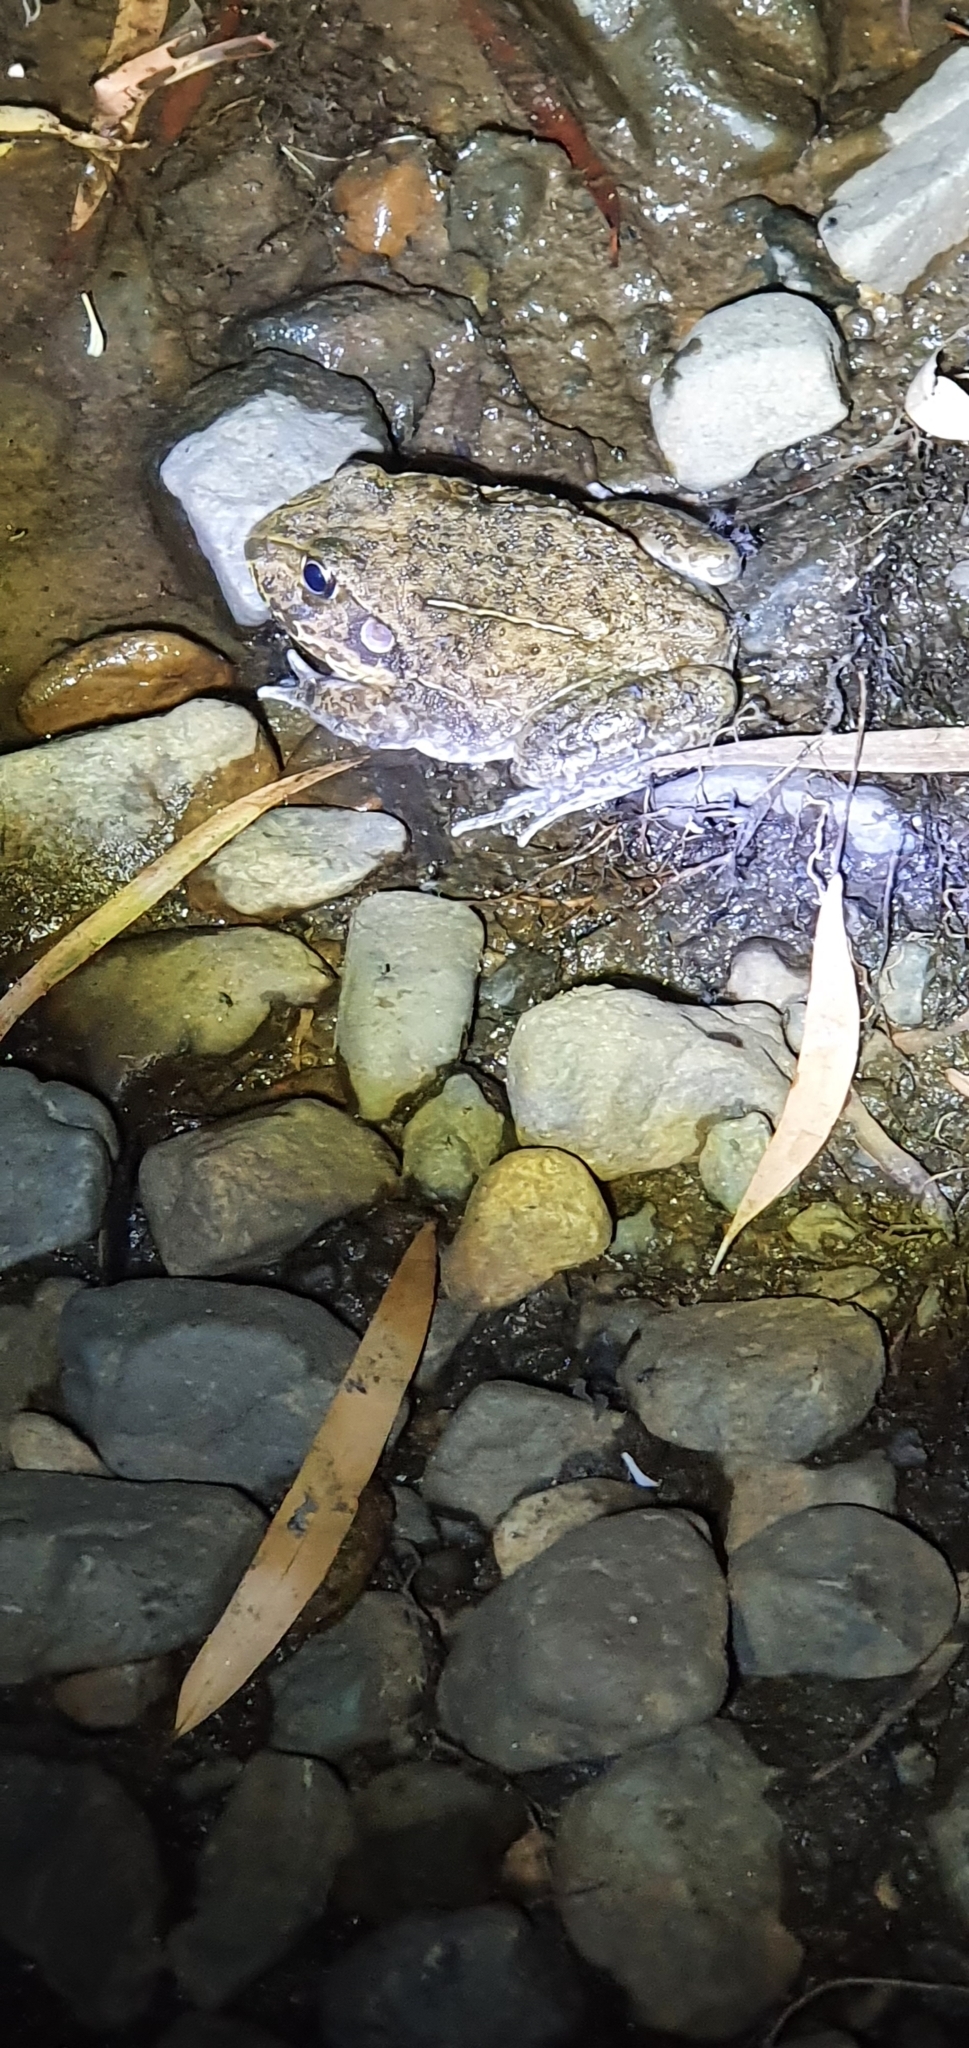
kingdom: Animalia
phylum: Chordata
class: Amphibia
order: Anura
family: Pelodryadidae
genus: Ranoidea
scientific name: Ranoidea novaehollandiae
